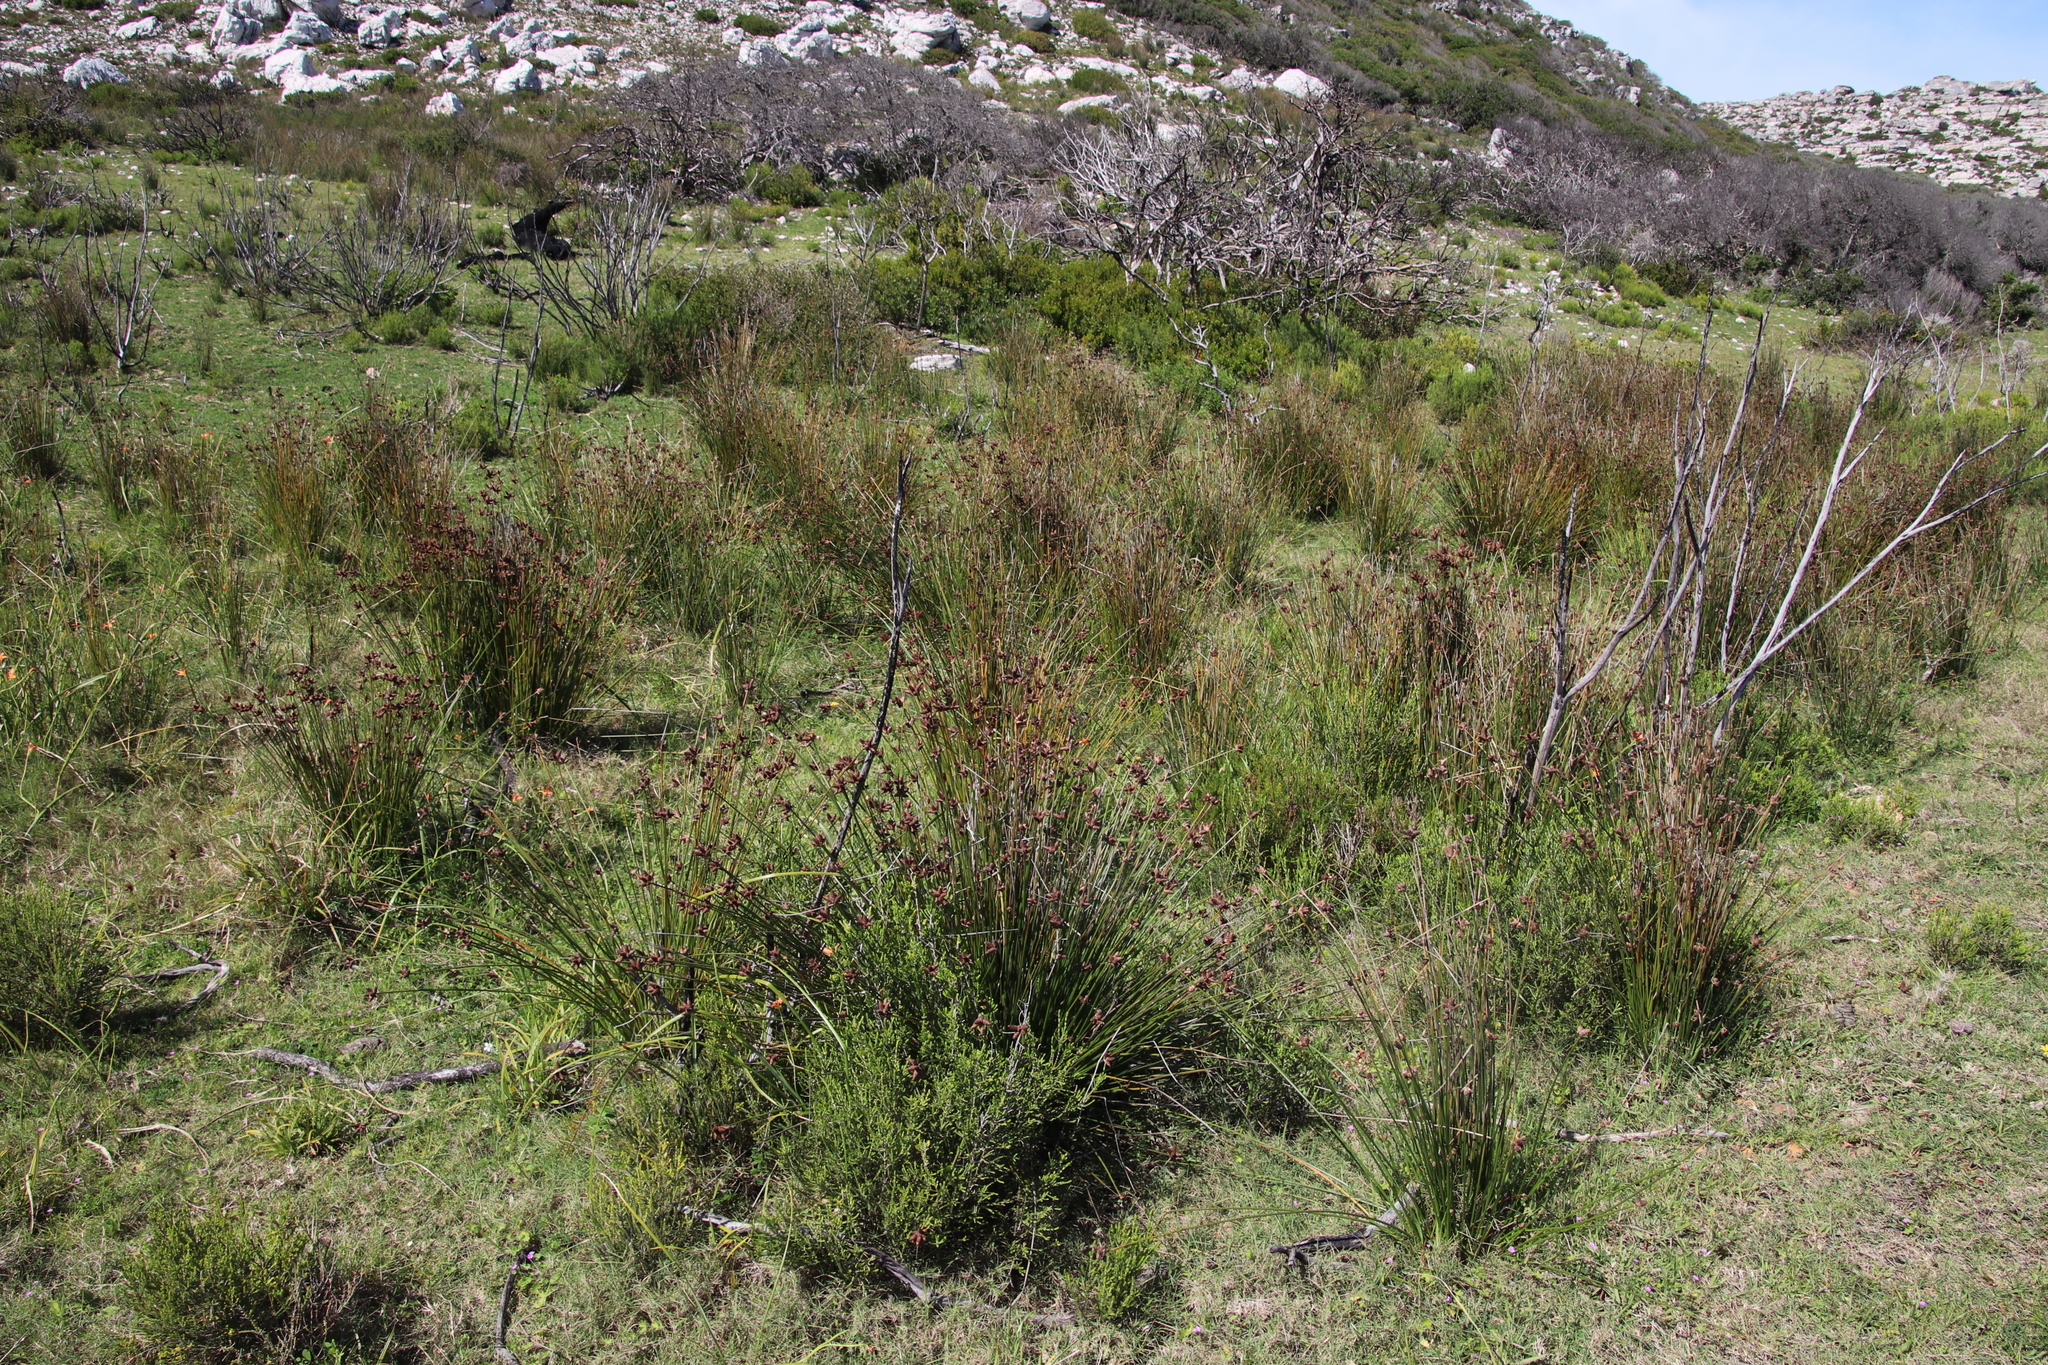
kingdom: Plantae
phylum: Tracheophyta
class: Liliopsida
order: Poales
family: Cyperaceae
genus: Hellmuthia
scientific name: Hellmuthia membranacea
